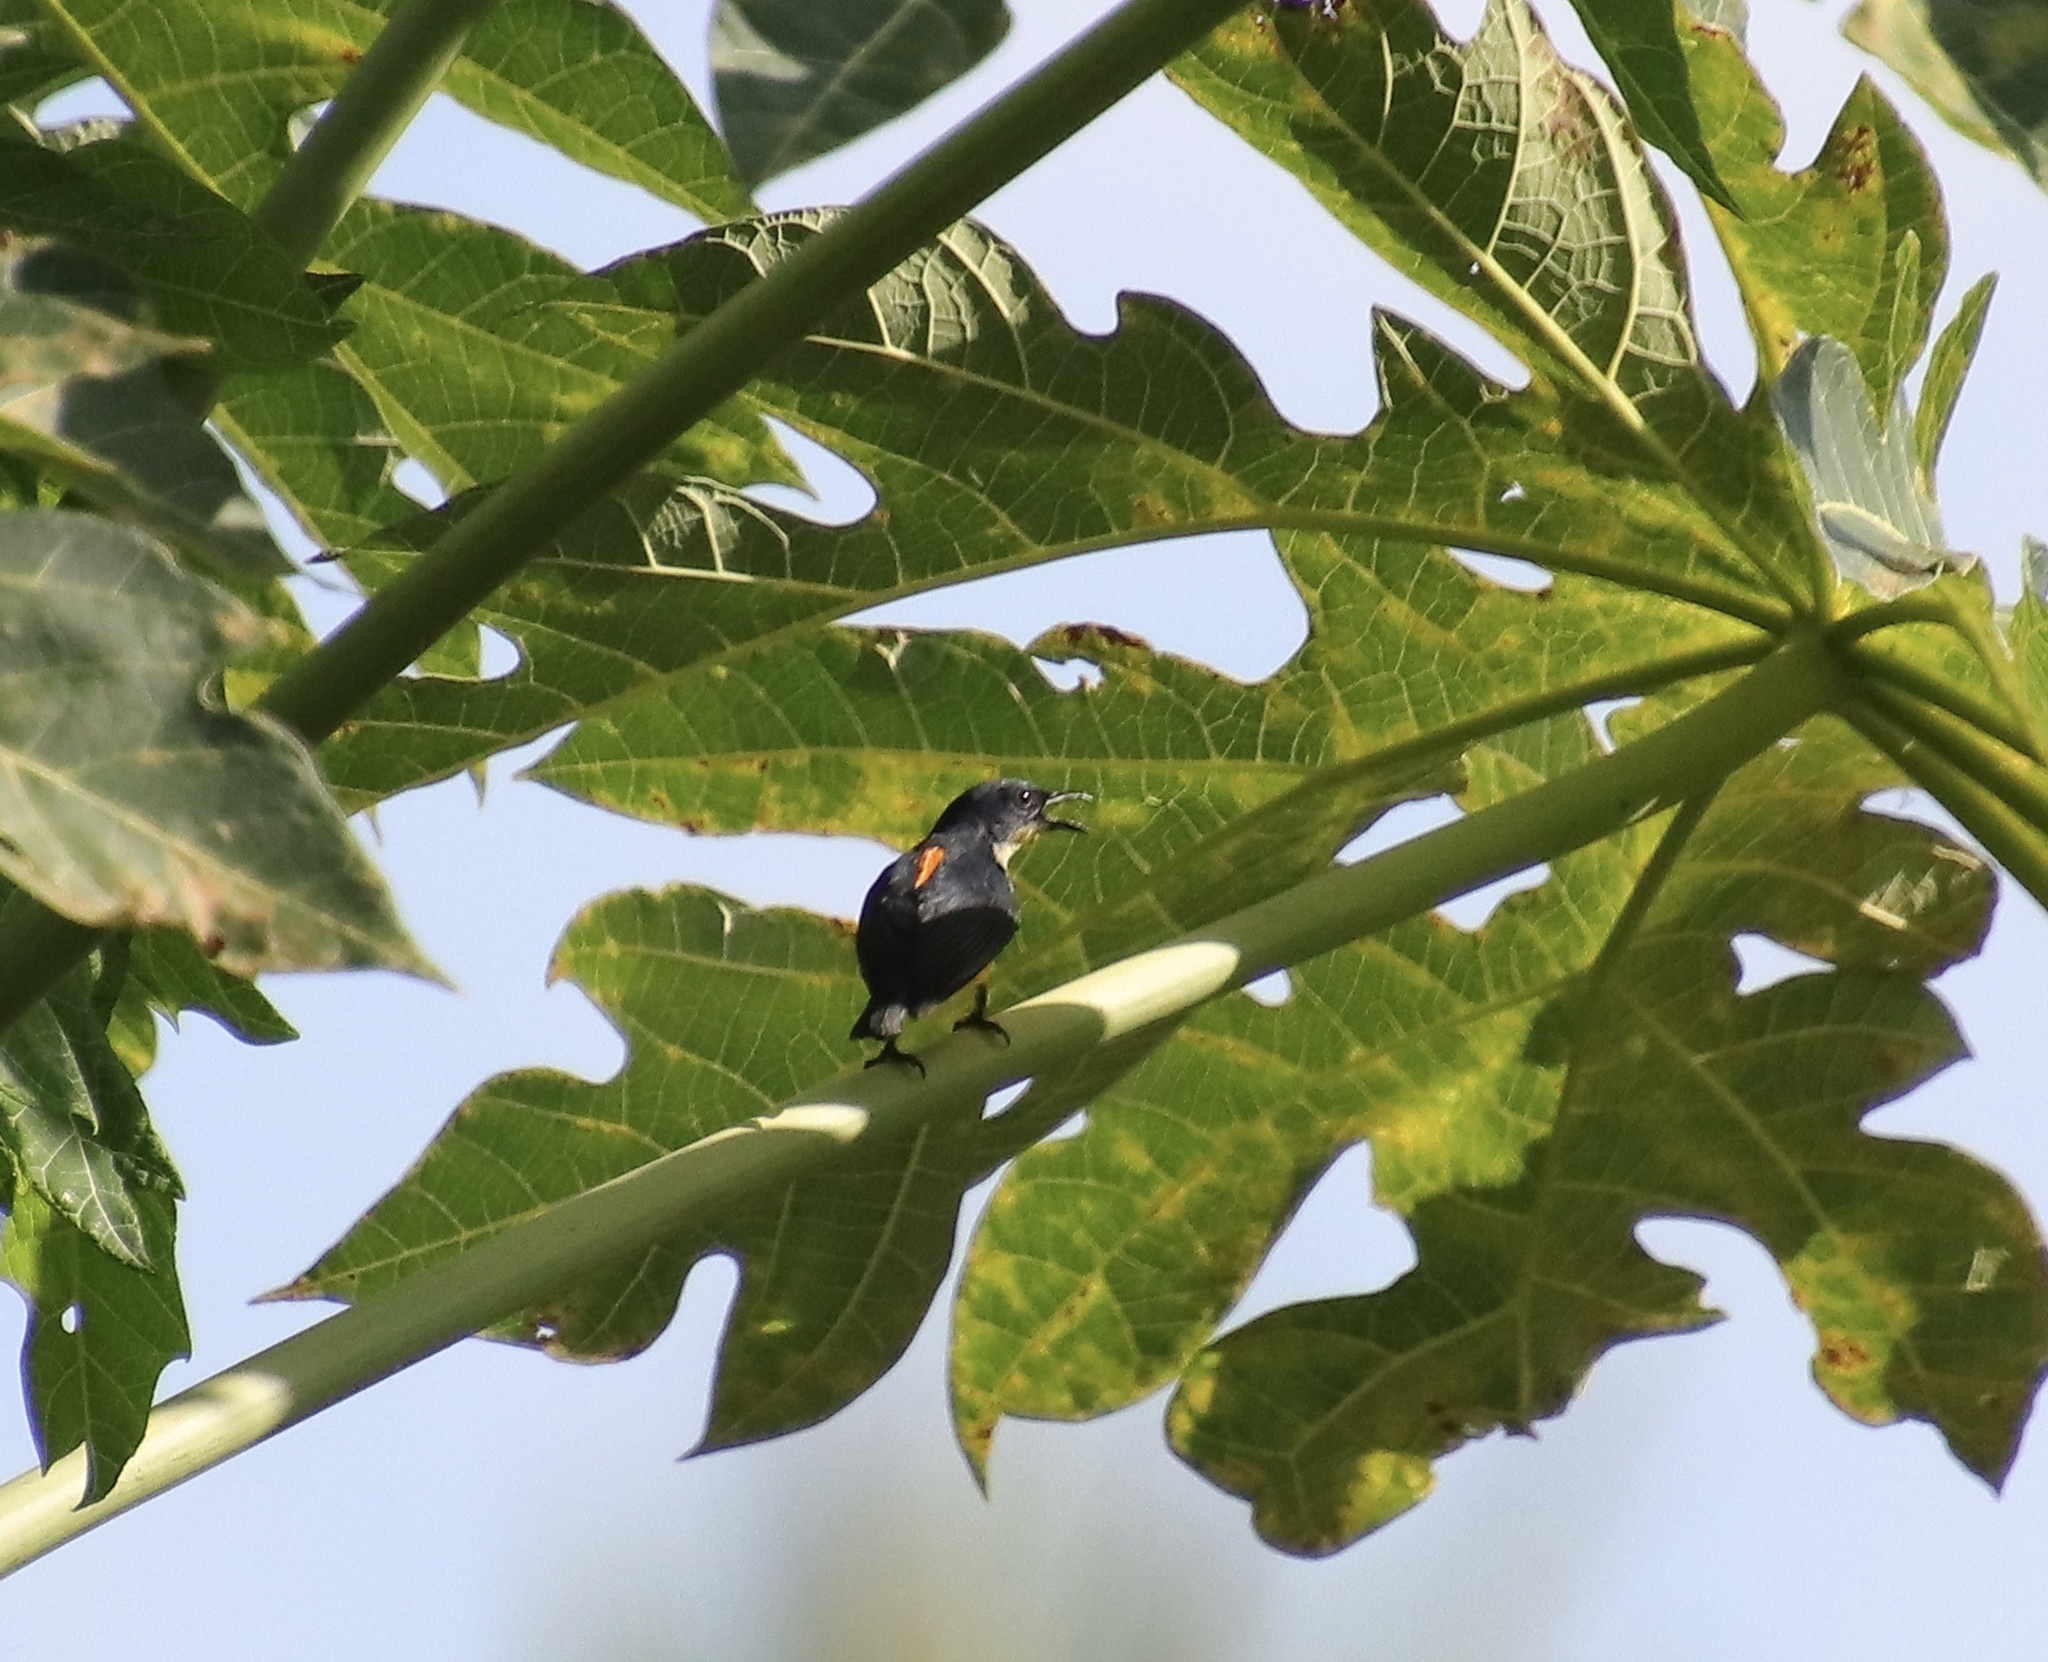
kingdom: Animalia
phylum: Chordata
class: Aves
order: Passeriformes
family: Dicaeidae
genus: Dicaeum
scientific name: Dicaeum trigonostigma
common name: Orange-bellied flowerpecker
